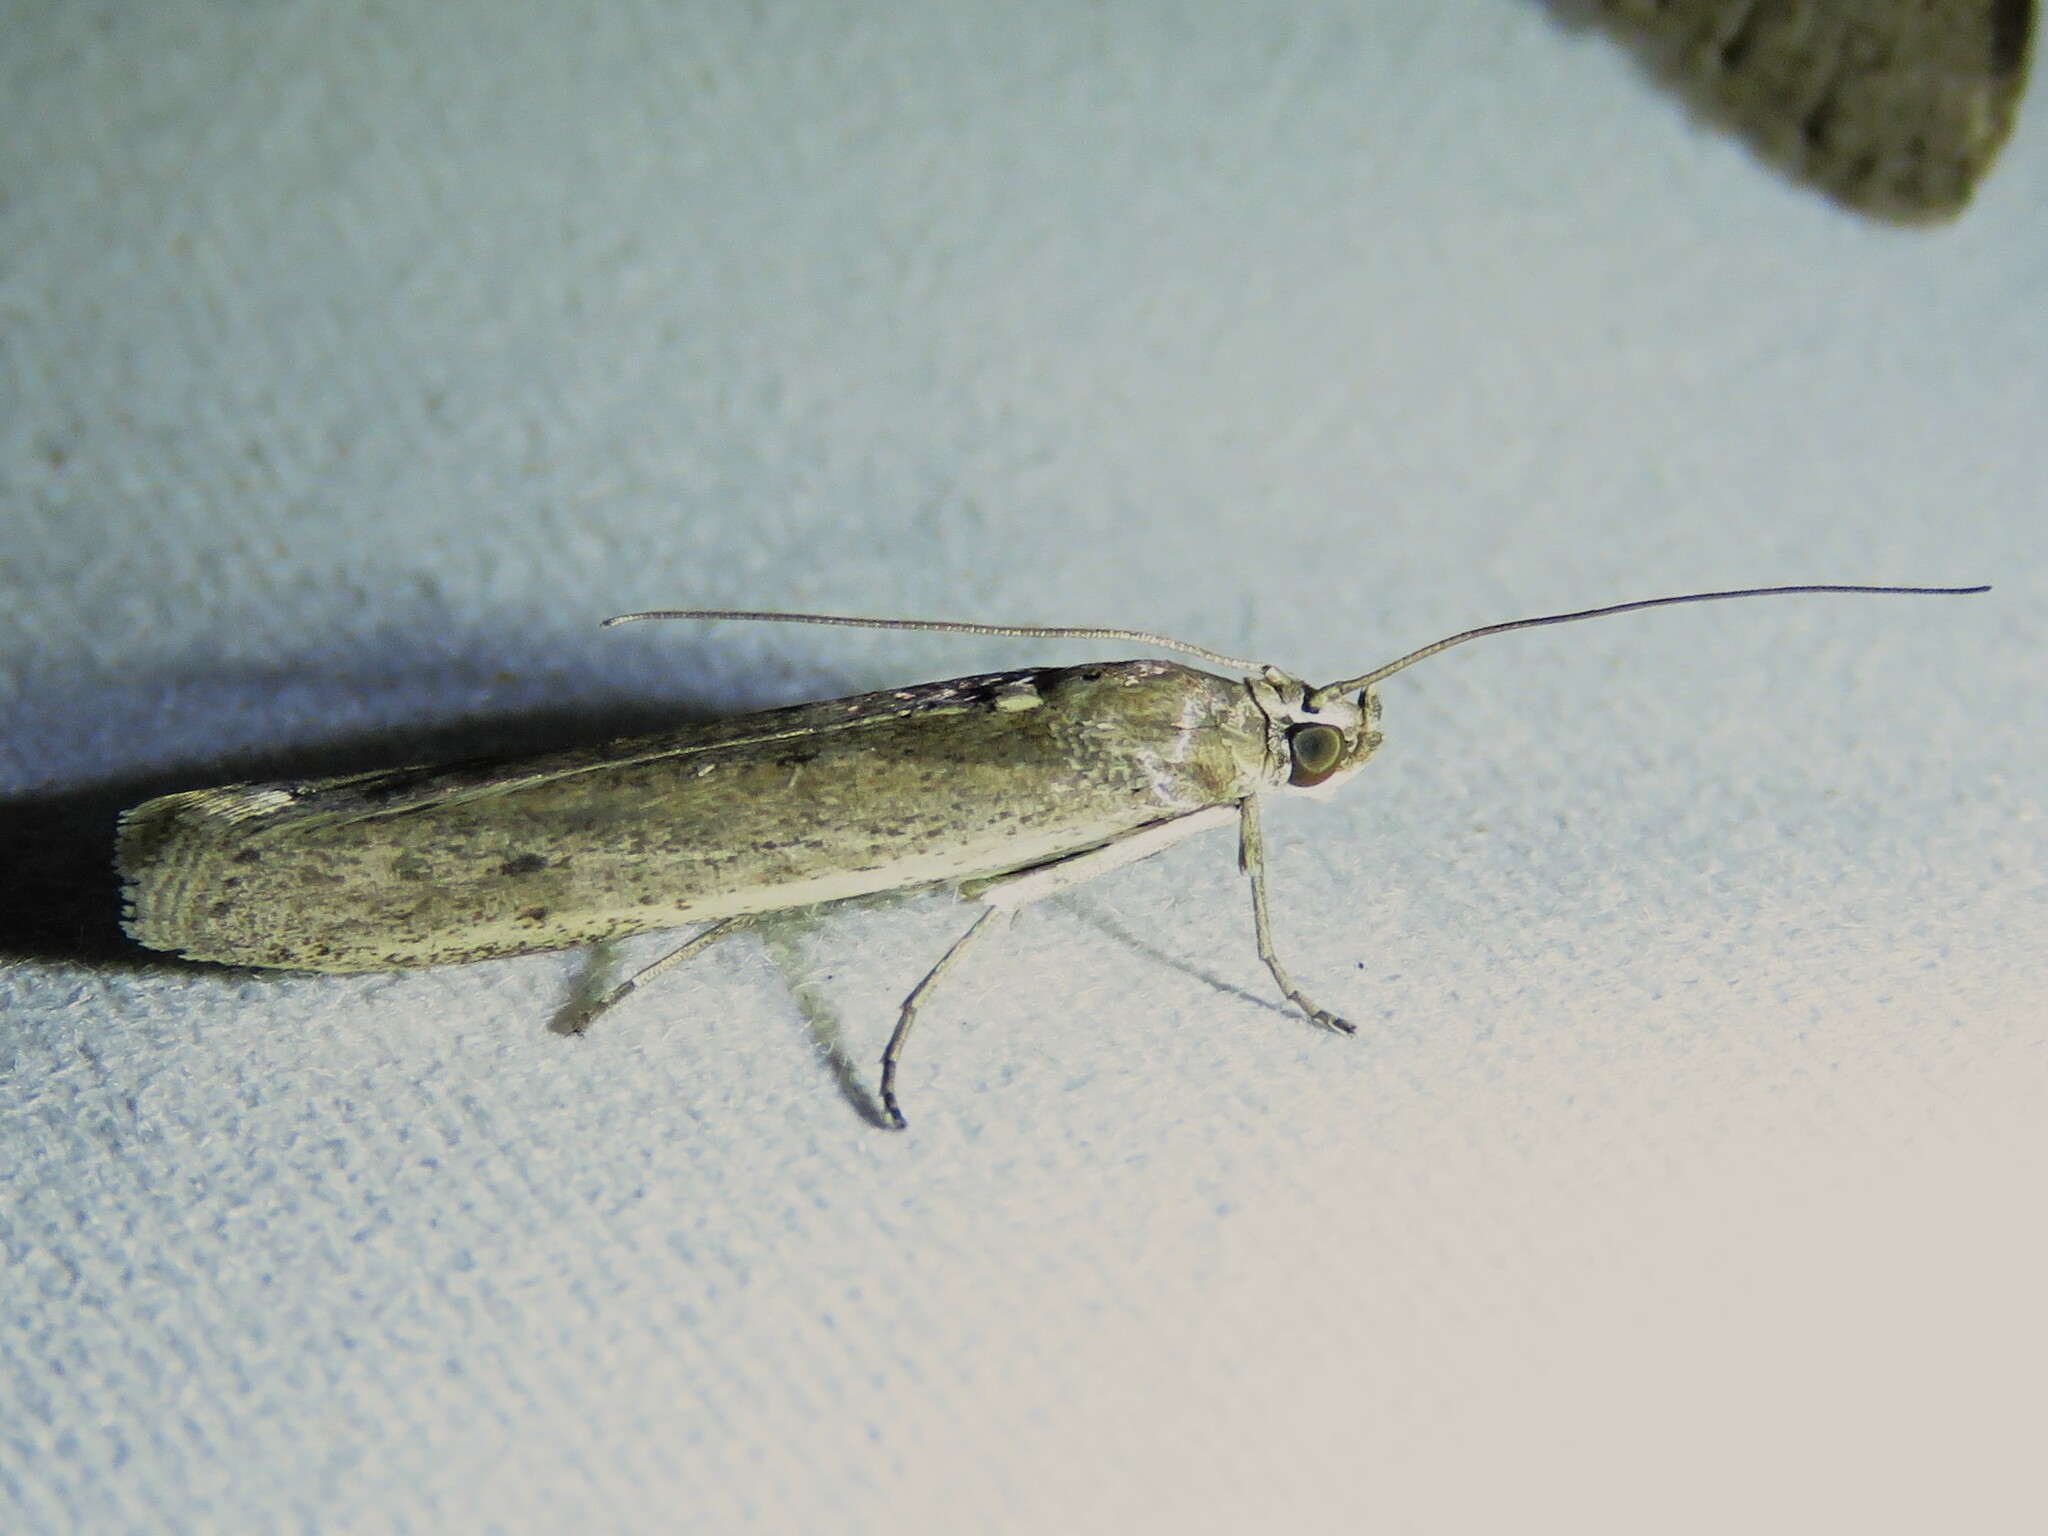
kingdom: Animalia
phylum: Arthropoda
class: Insecta
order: Lepidoptera
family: Pyralidae
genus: Homoeosoma
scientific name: Homoeosoma electella
